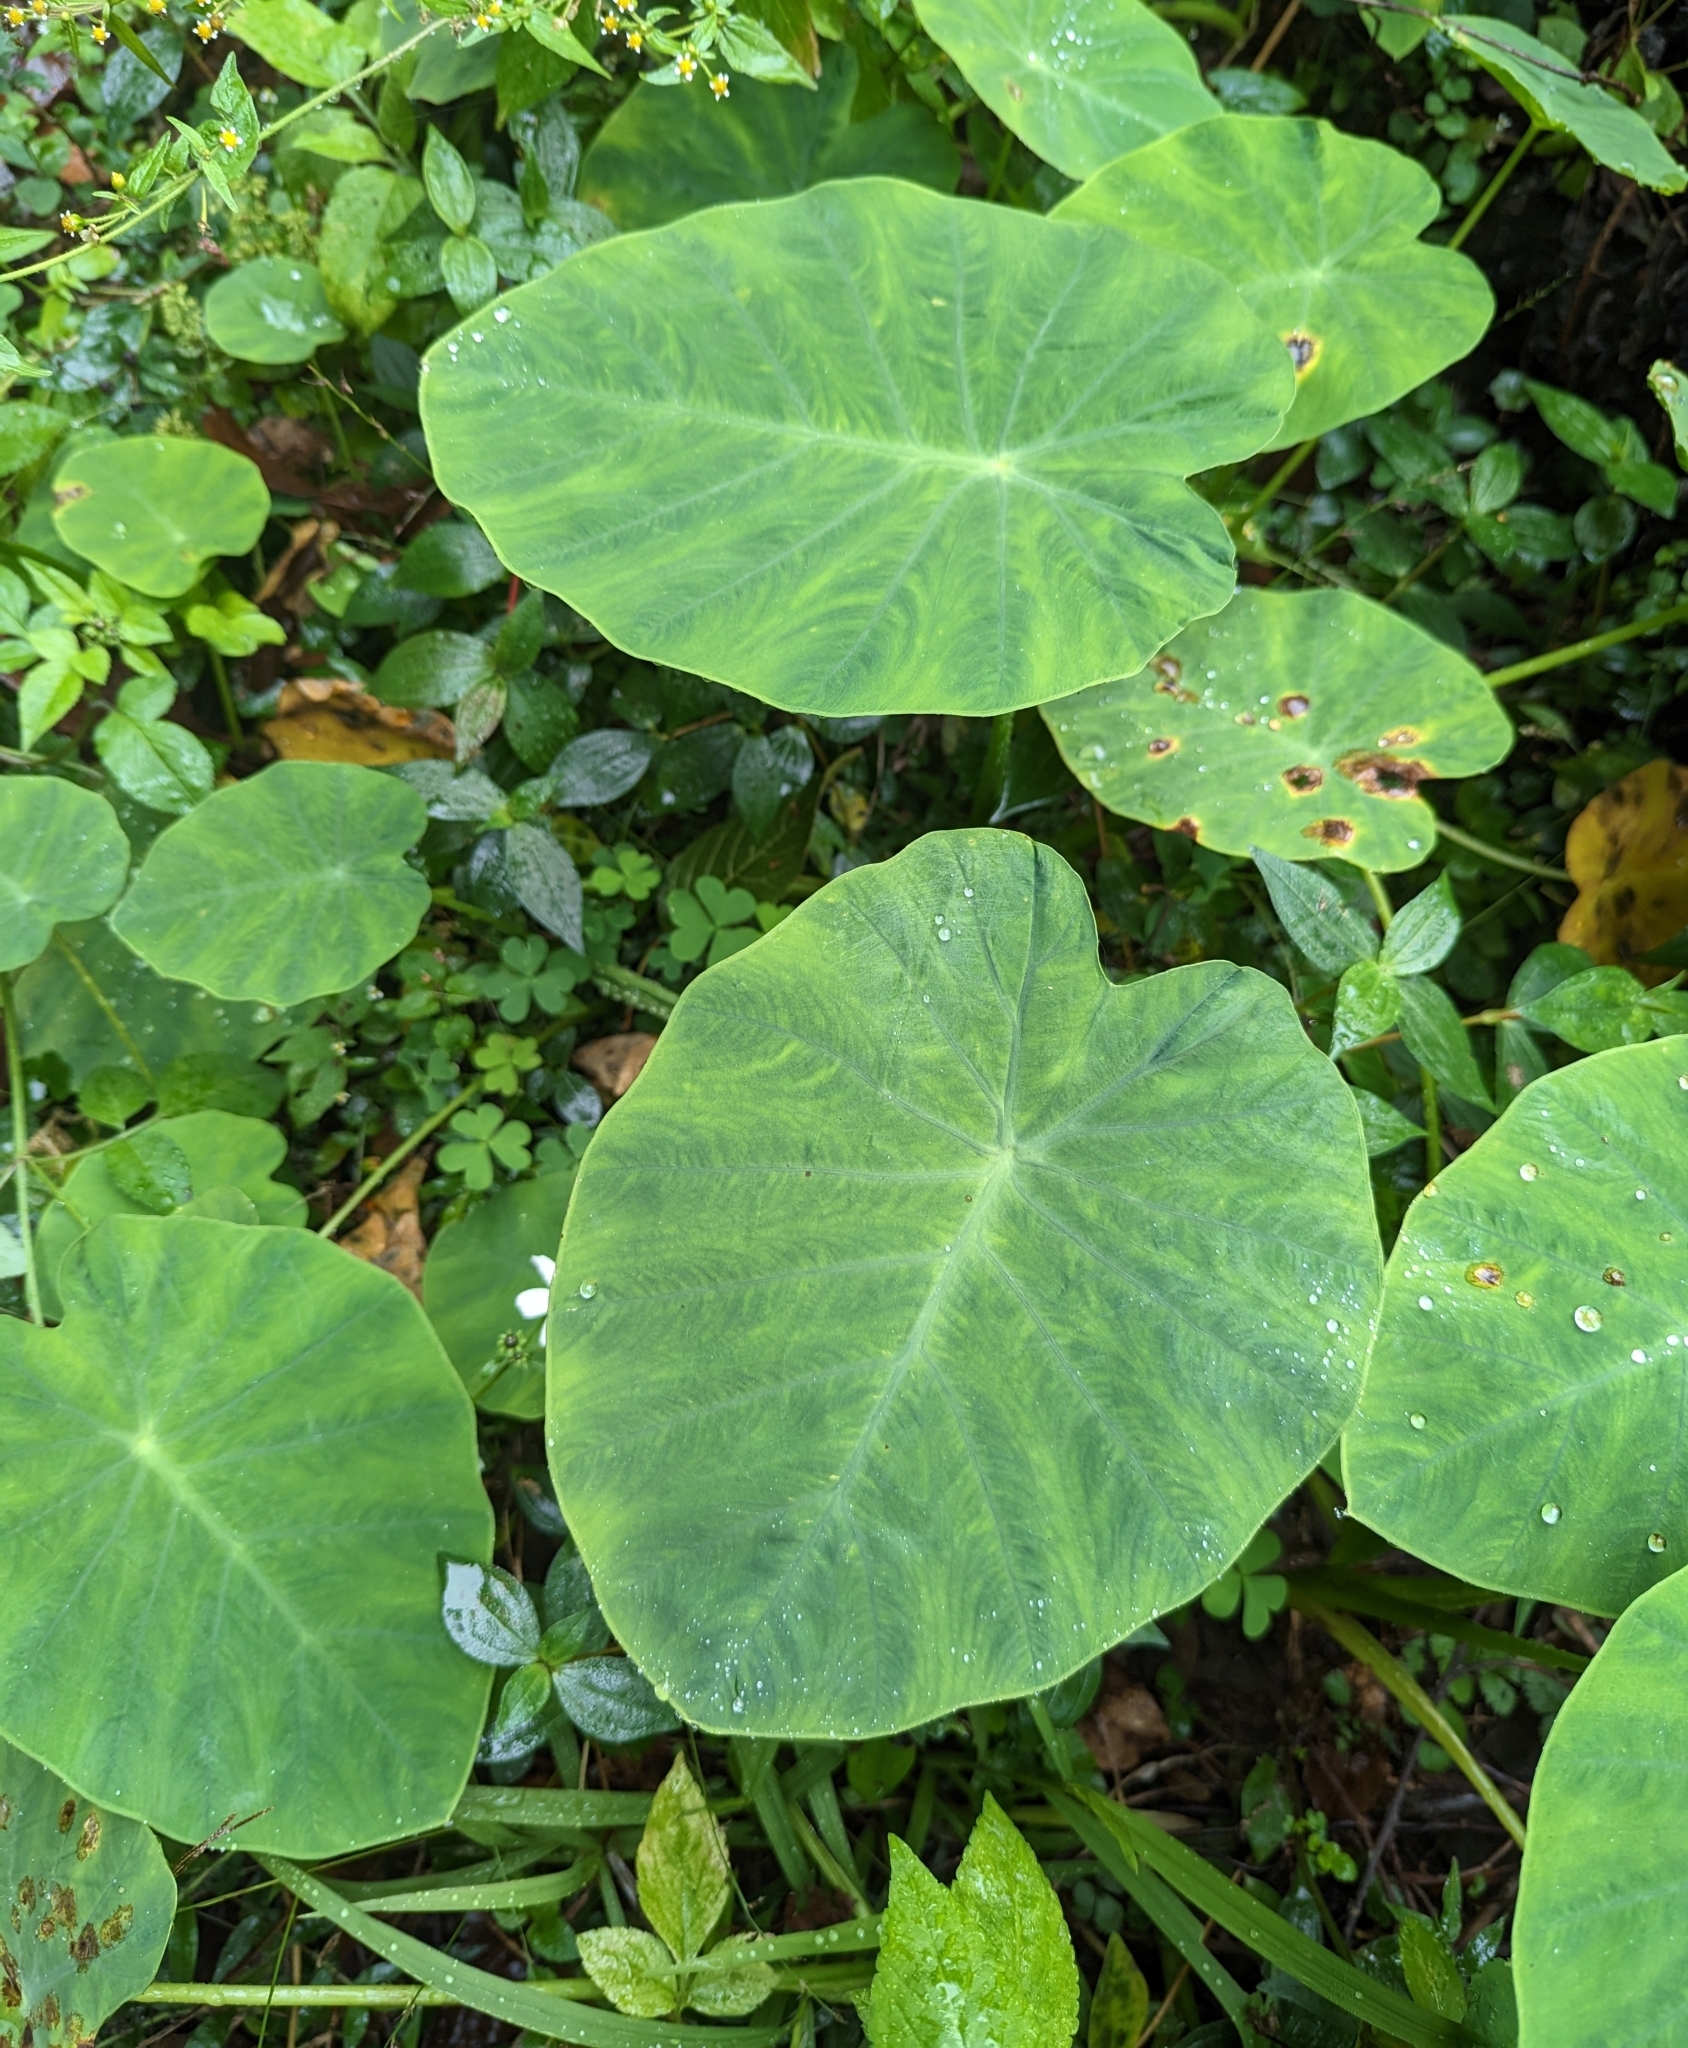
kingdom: Plantae
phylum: Tracheophyta
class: Liliopsida
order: Alismatales
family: Araceae
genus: Colocasia
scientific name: Colocasia esculenta
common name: Taro
